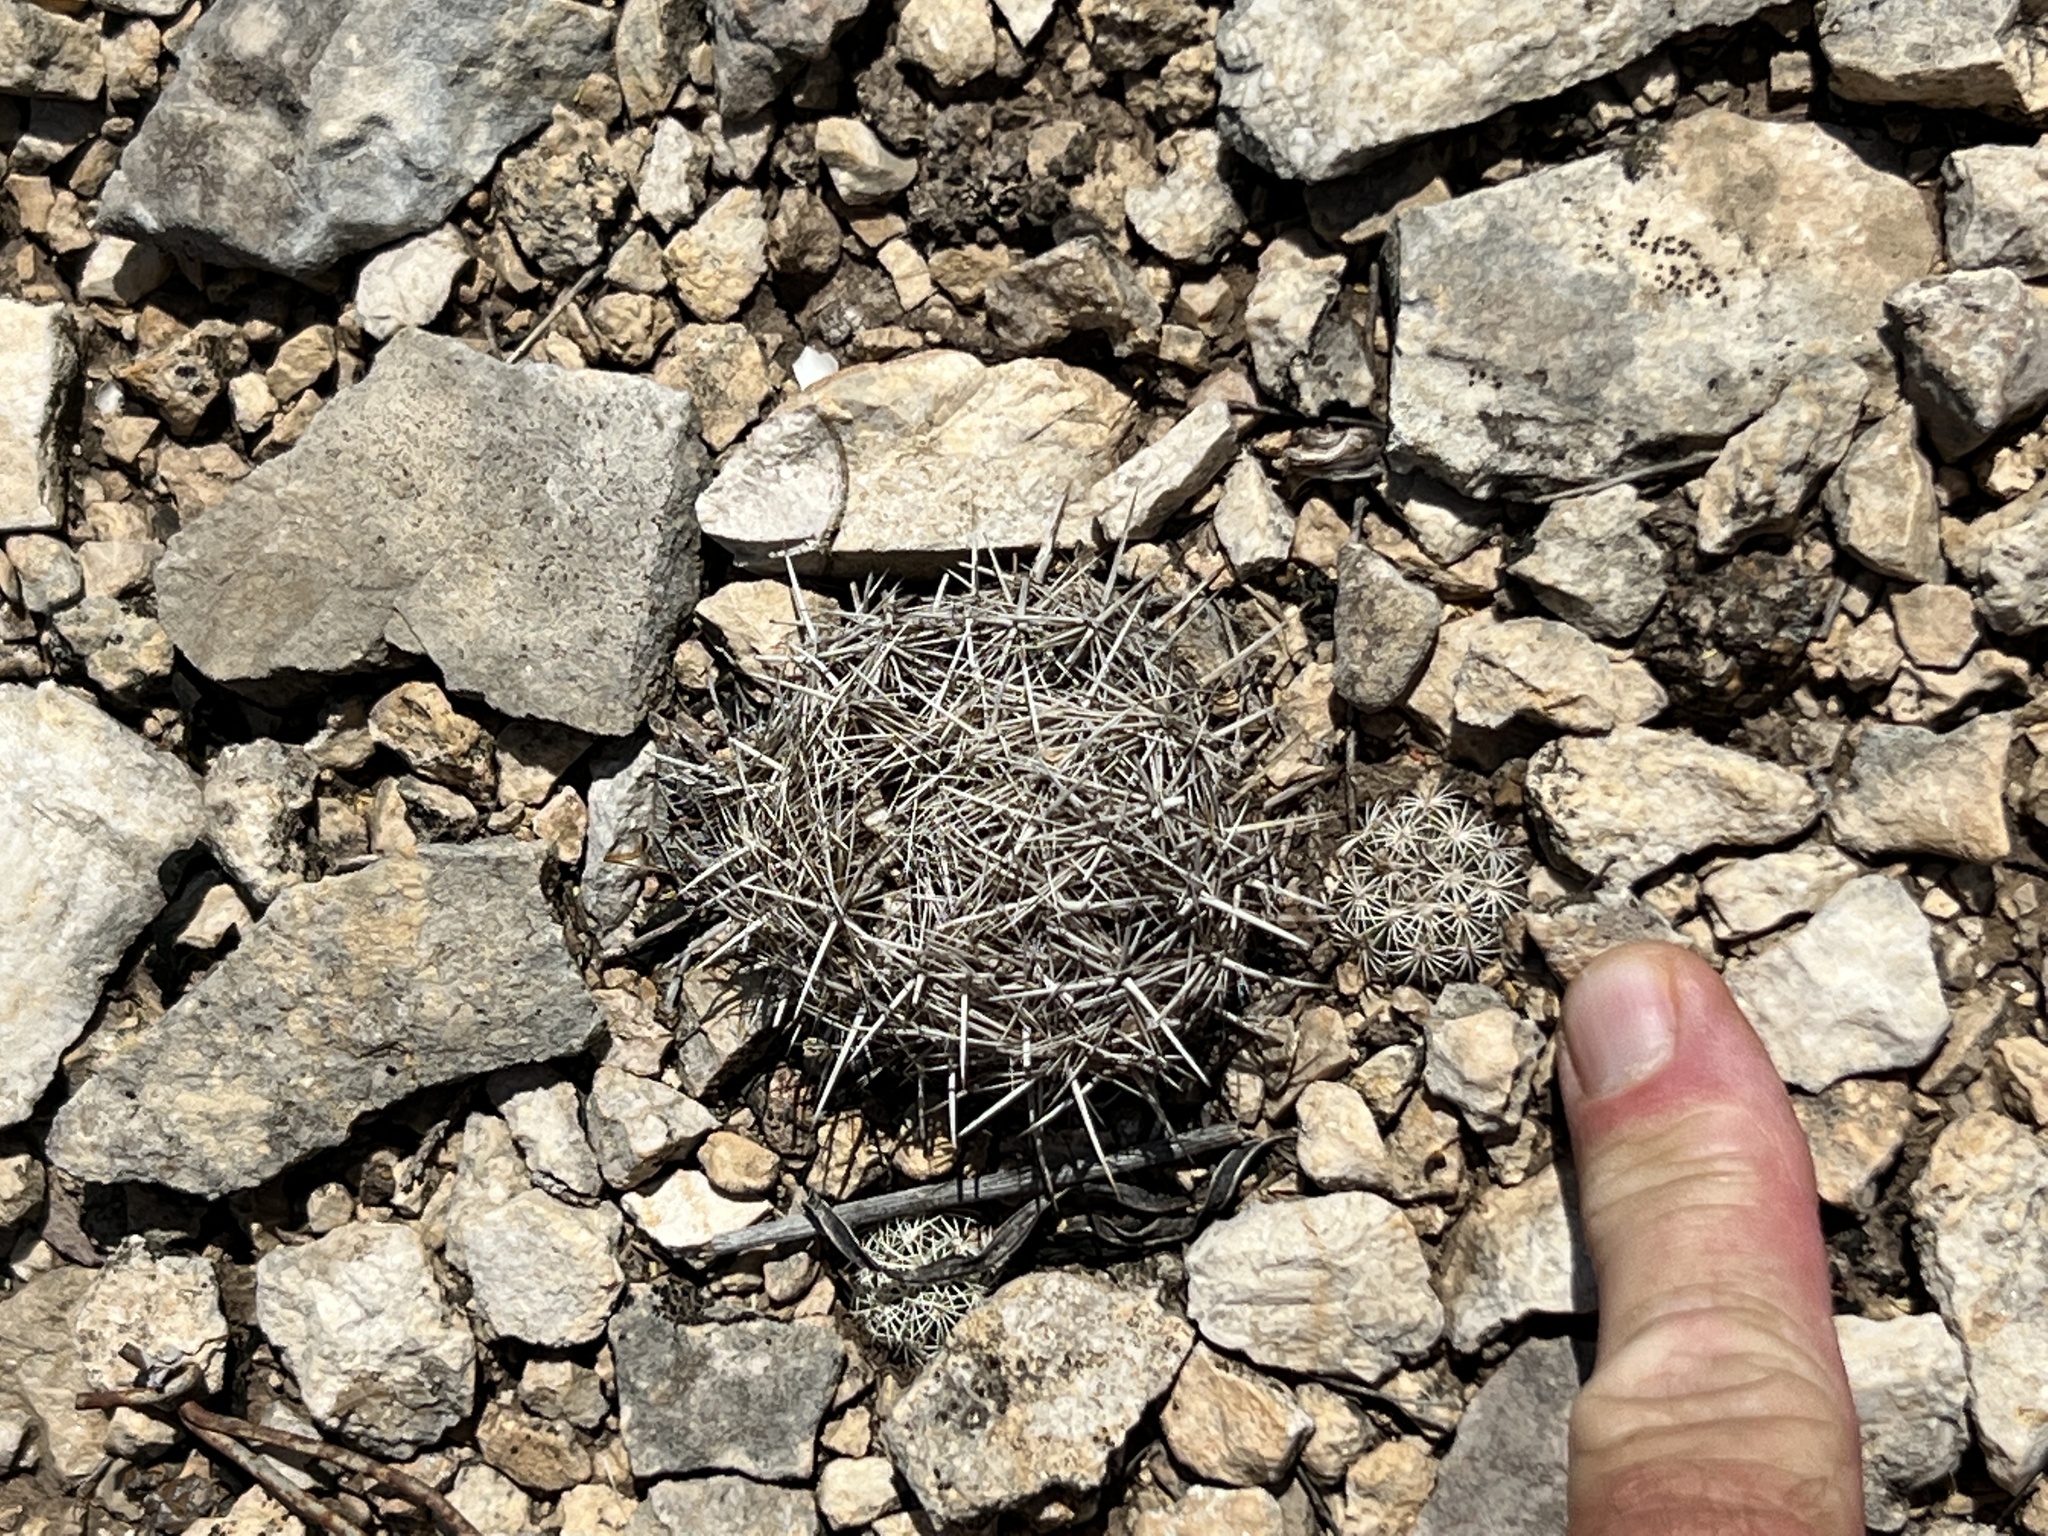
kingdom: Plantae
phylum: Tracheophyta
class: Magnoliopsida
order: Caryophyllales
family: Cactaceae
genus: Coryphantha
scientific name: Coryphantha echinus
